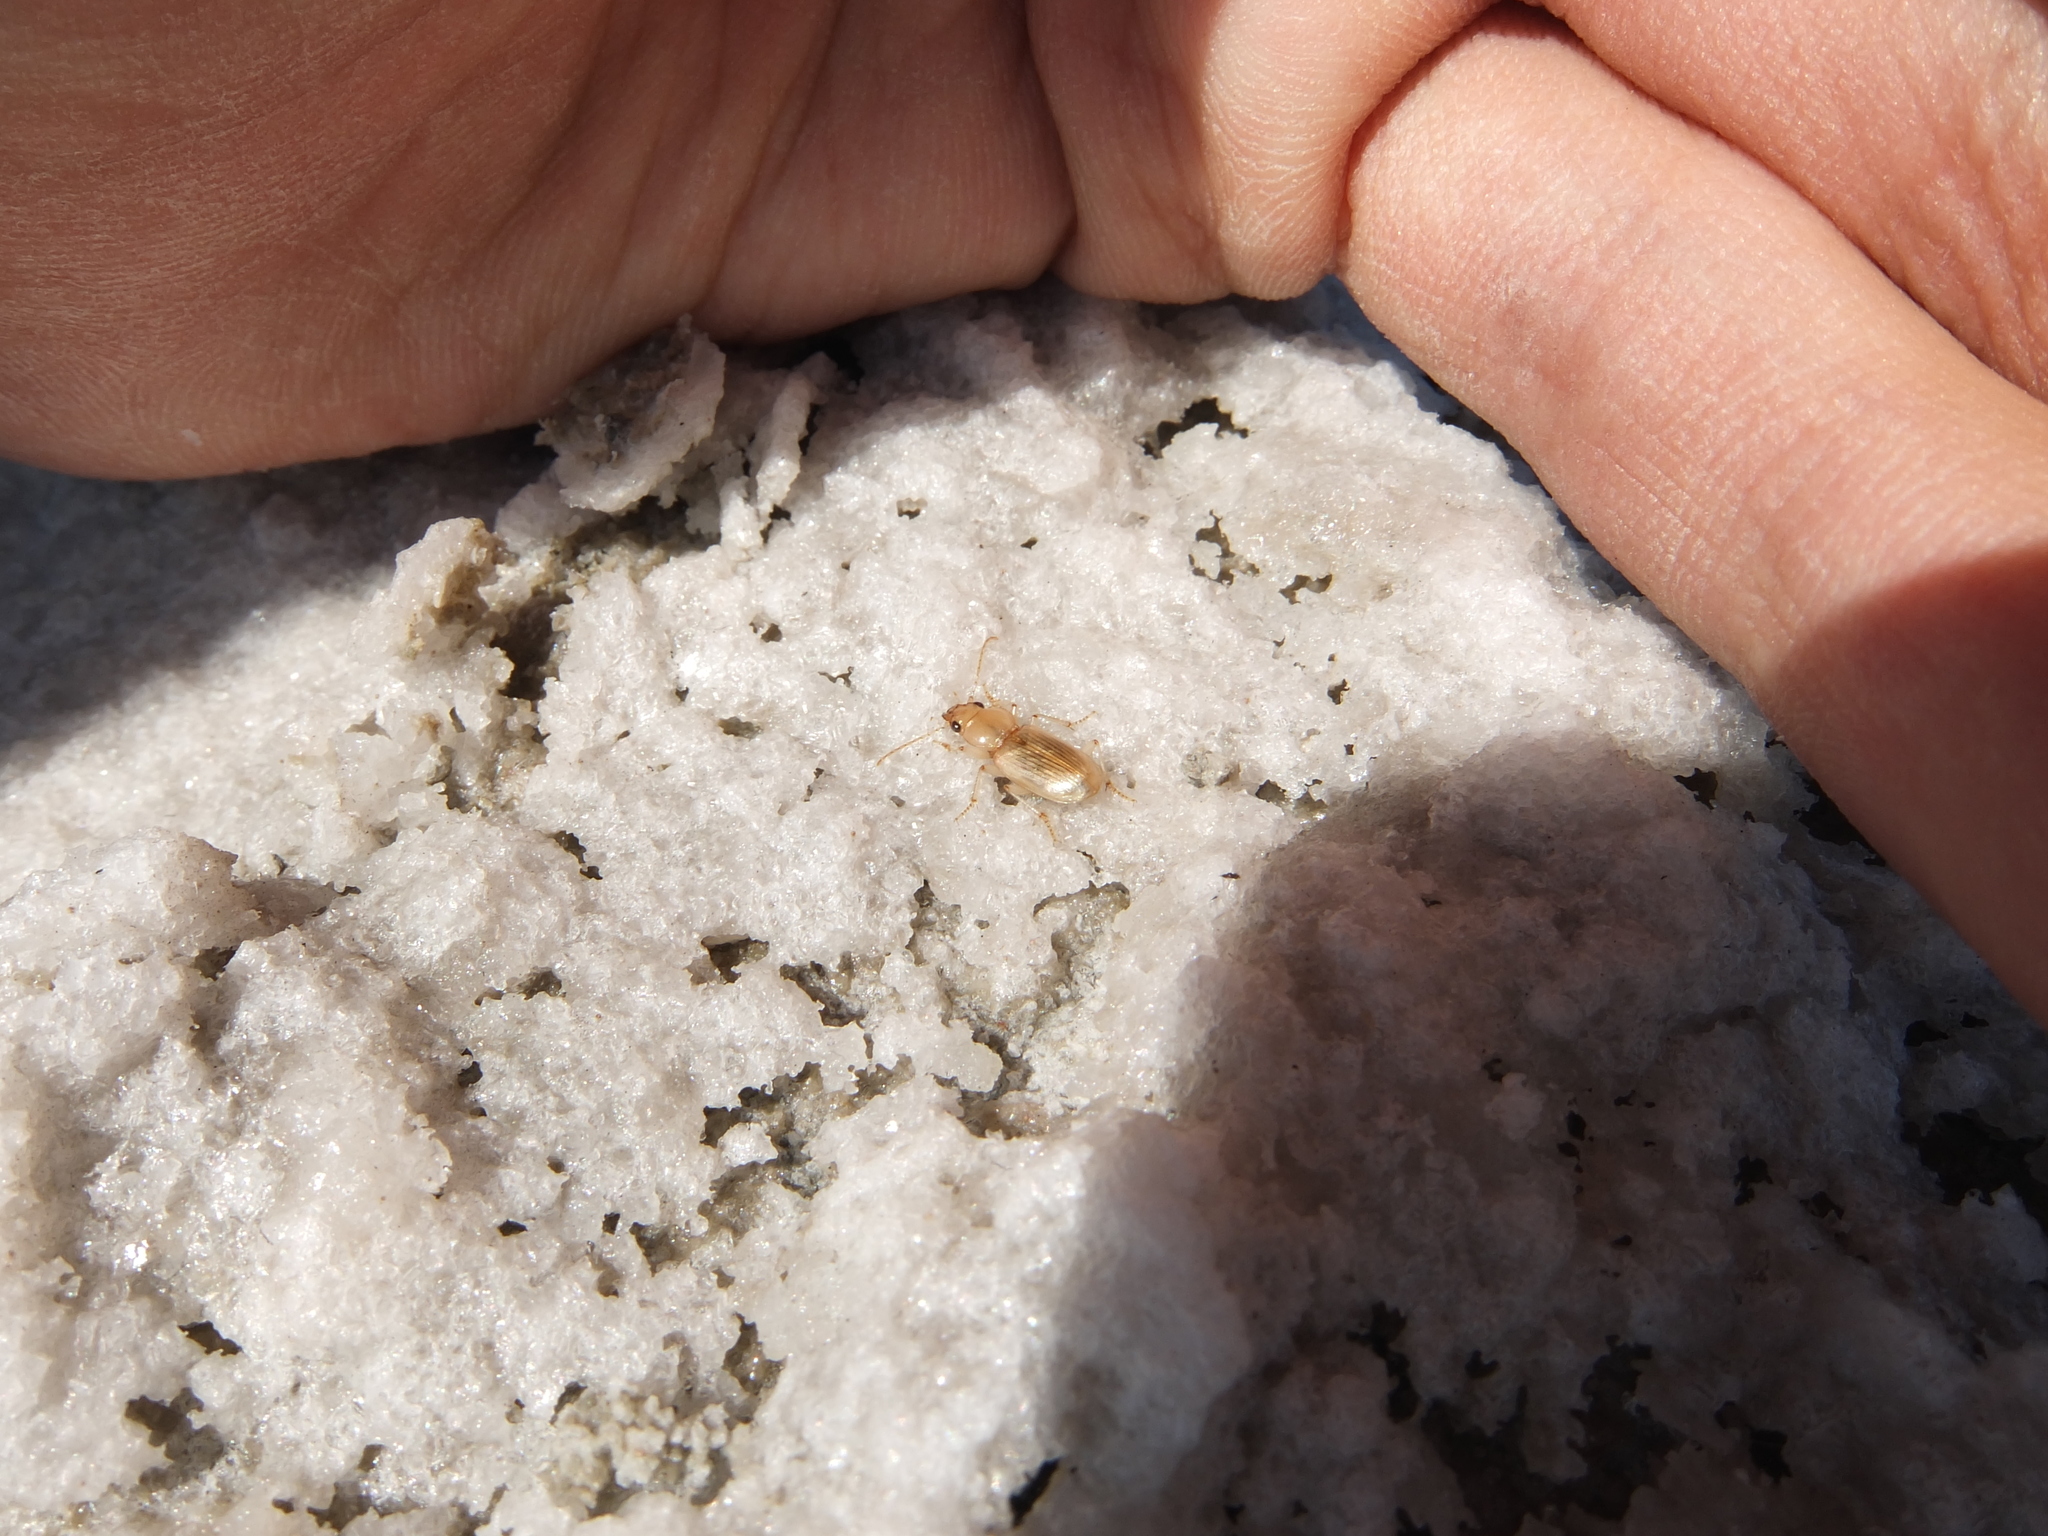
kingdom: Animalia
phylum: Arthropoda
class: Insecta
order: Coleoptera
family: Carabidae
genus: Tachys
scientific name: Tachys micros
